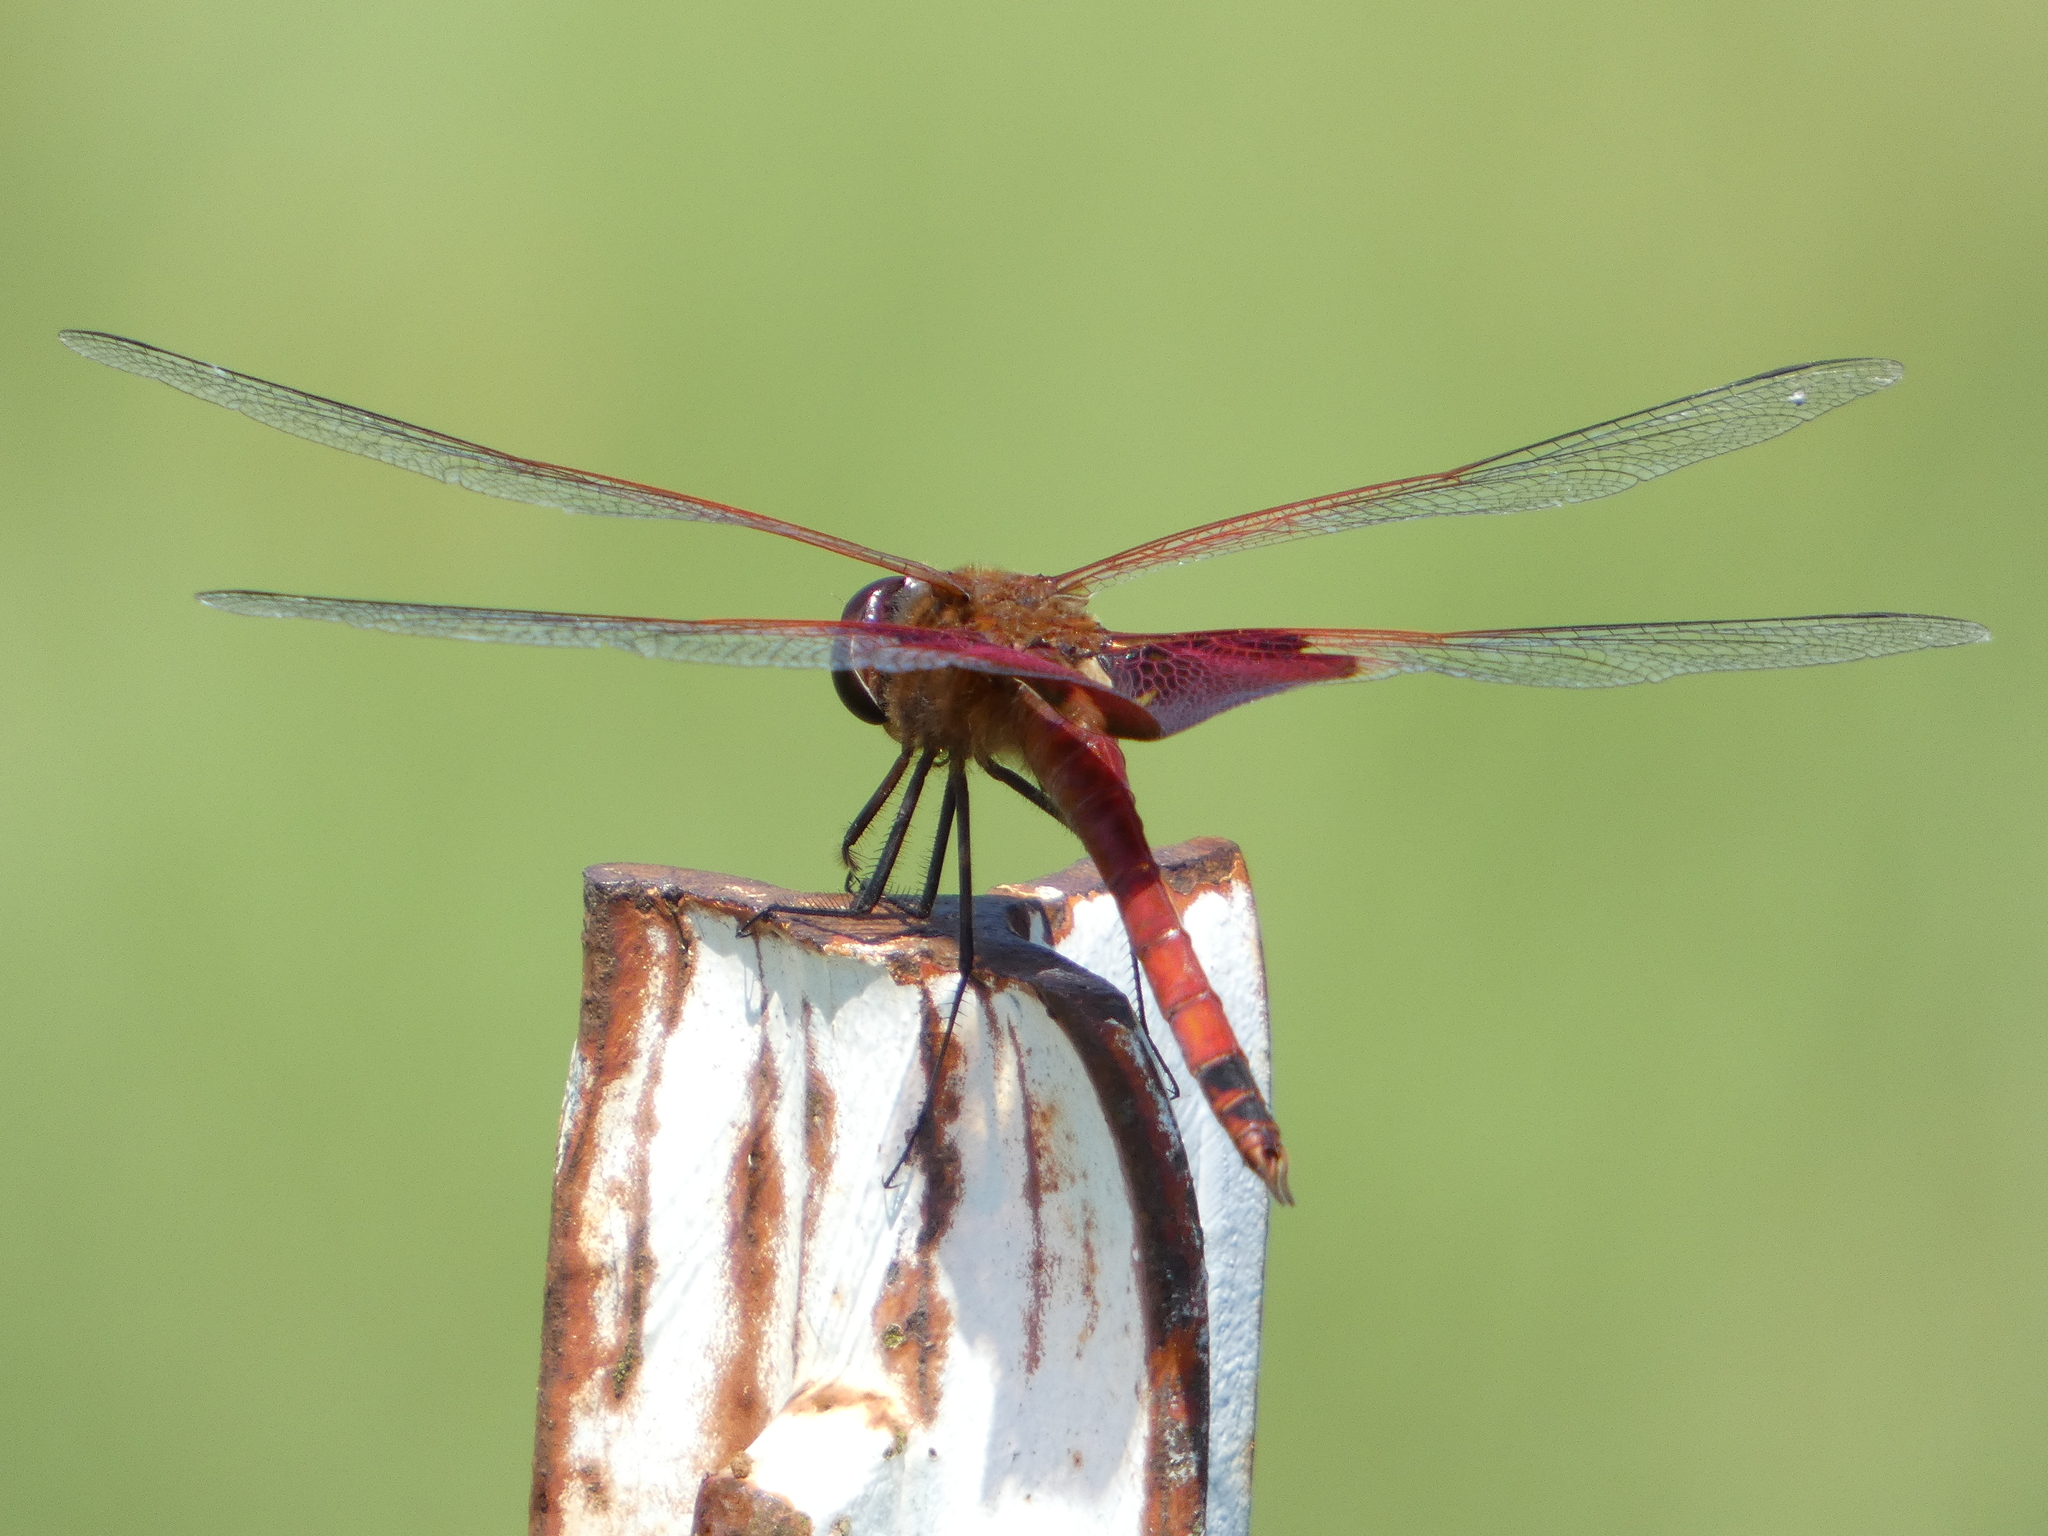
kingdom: Animalia
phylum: Arthropoda
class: Insecta
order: Odonata
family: Libellulidae
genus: Tramea
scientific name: Tramea carolina
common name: Carolina saddlebags
